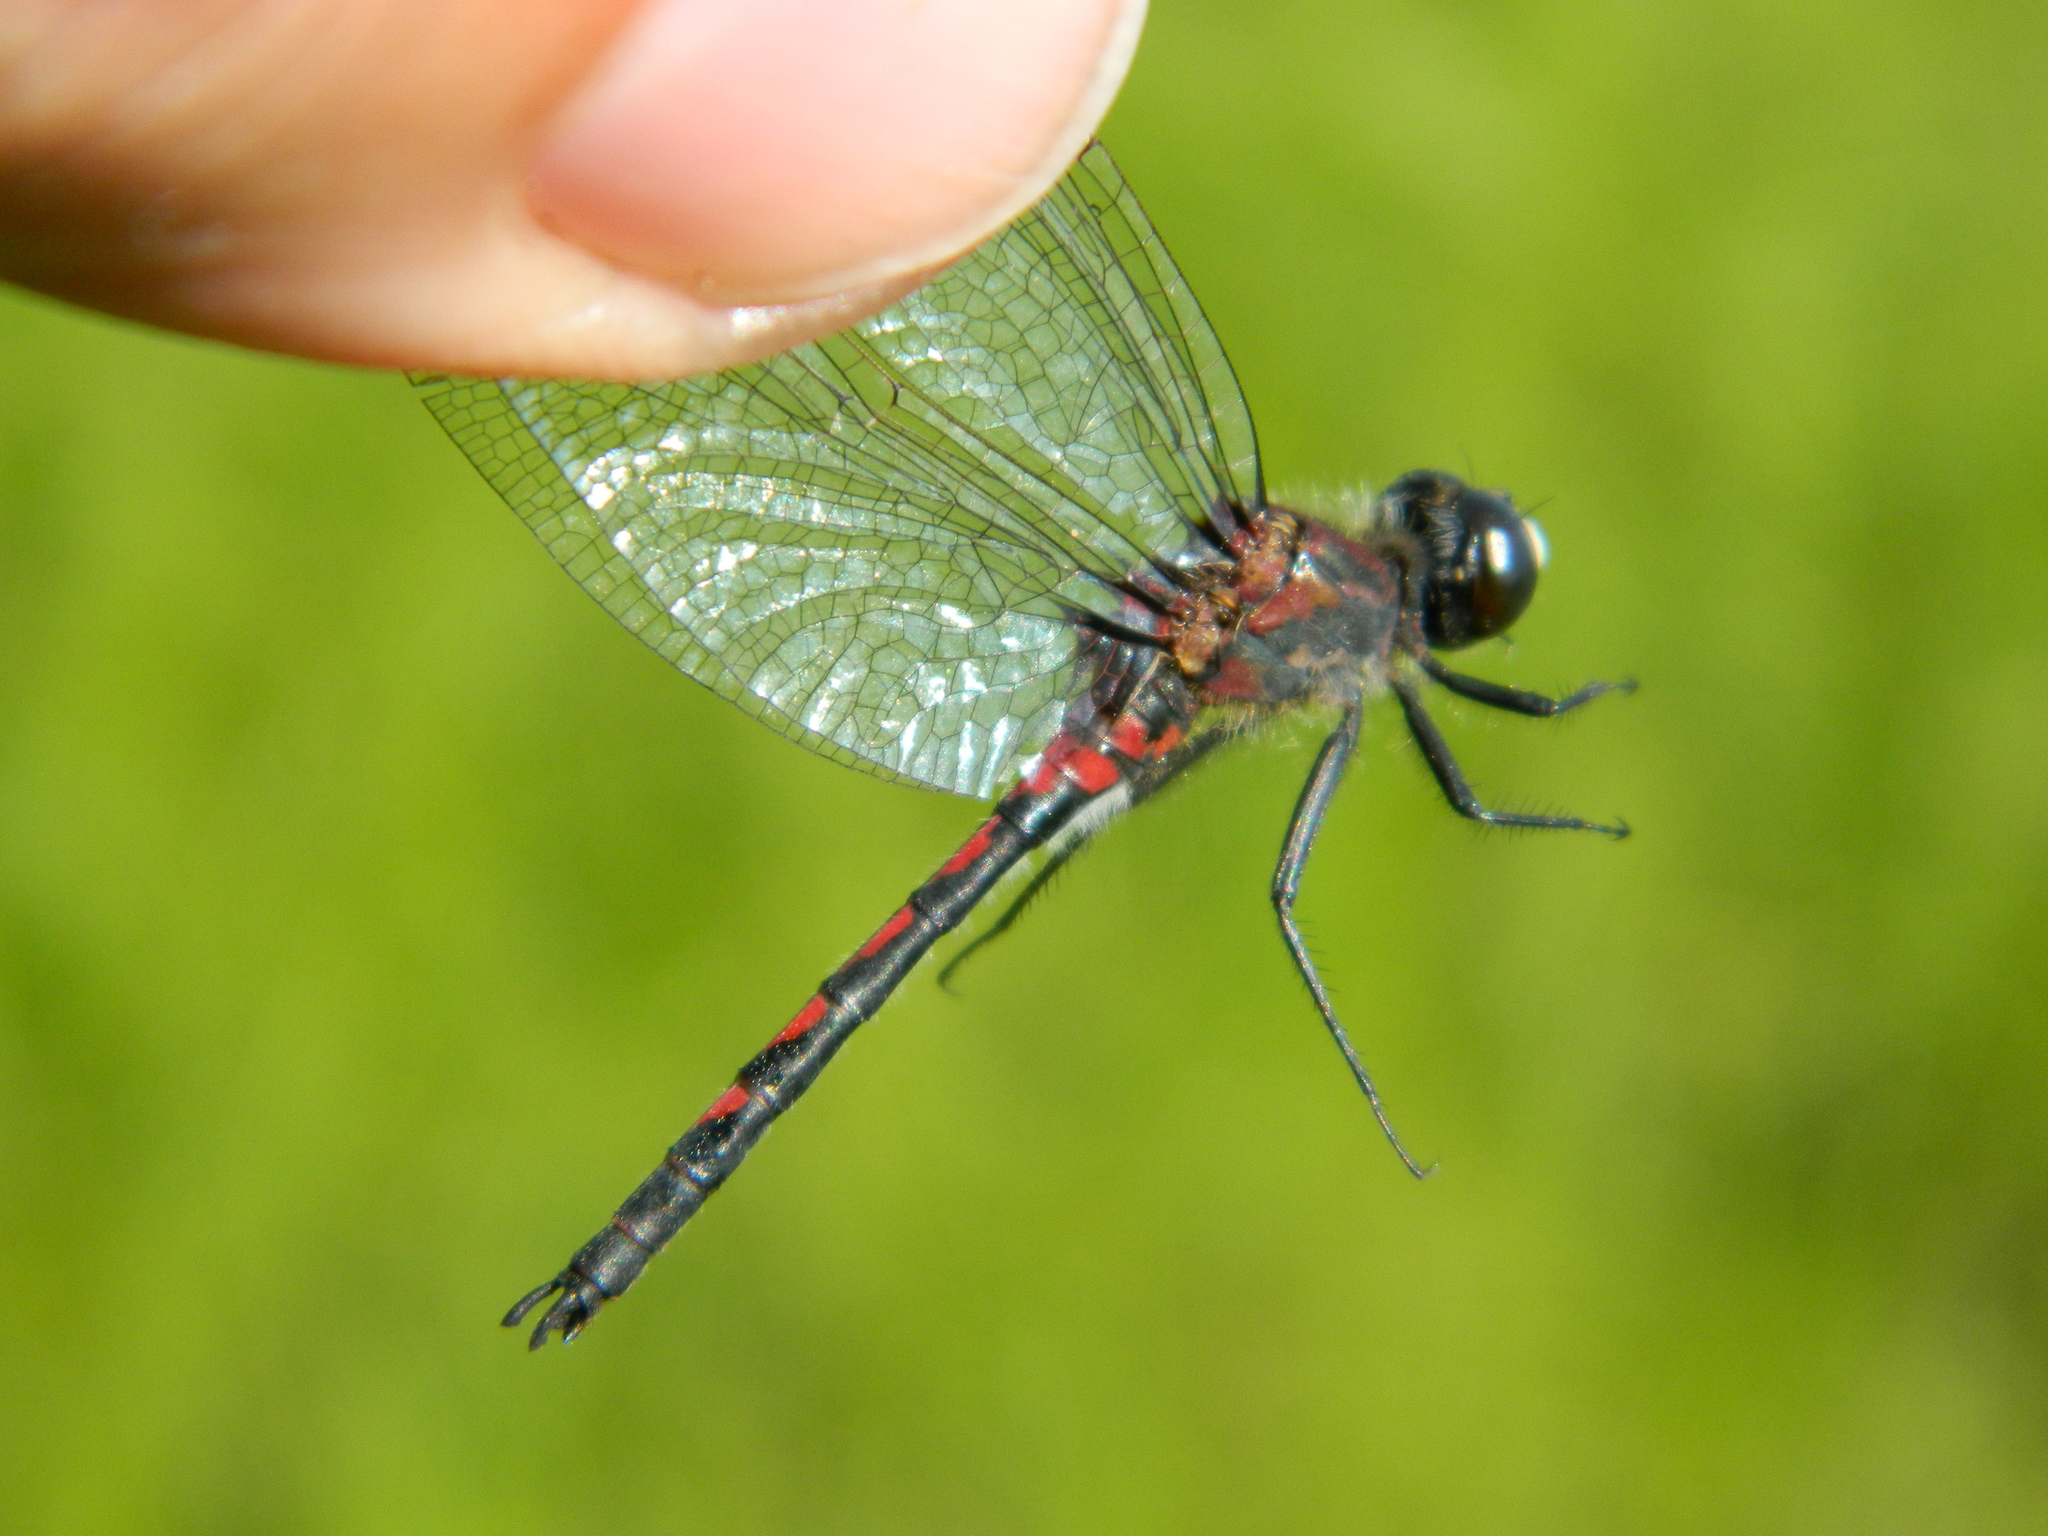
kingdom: Animalia
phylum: Arthropoda
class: Insecta
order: Odonata
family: Libellulidae
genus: Leucorrhinia
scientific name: Leucorrhinia hudsonica
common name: Hudsonian whiteface
